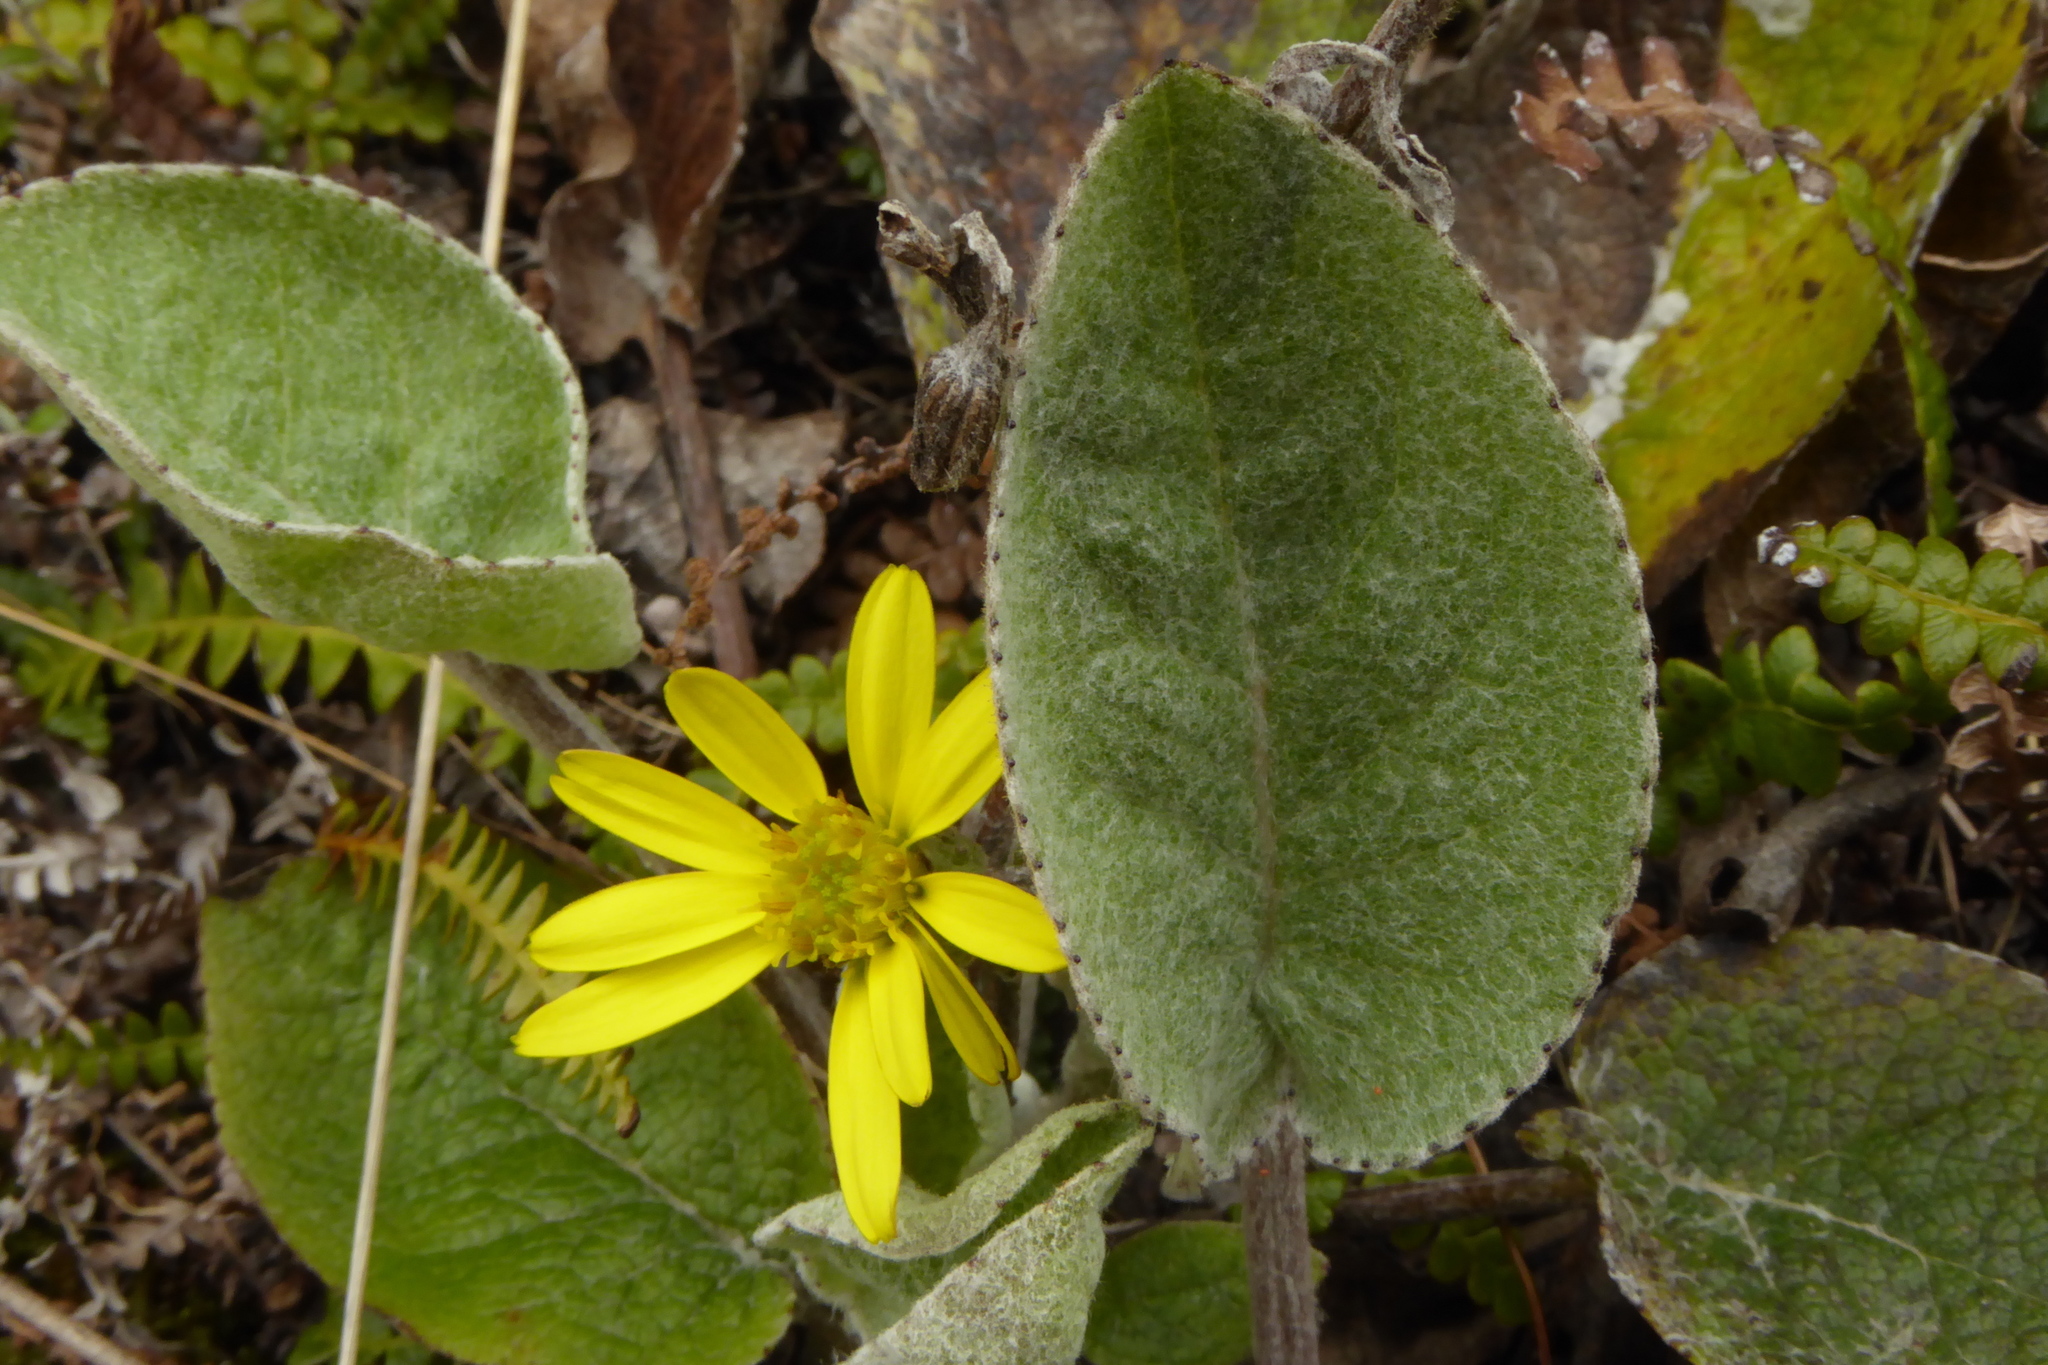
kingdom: Plantae
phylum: Tracheophyta
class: Magnoliopsida
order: Asterales
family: Asteraceae
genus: Brachyglottis
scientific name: Brachyglottis southlandica
